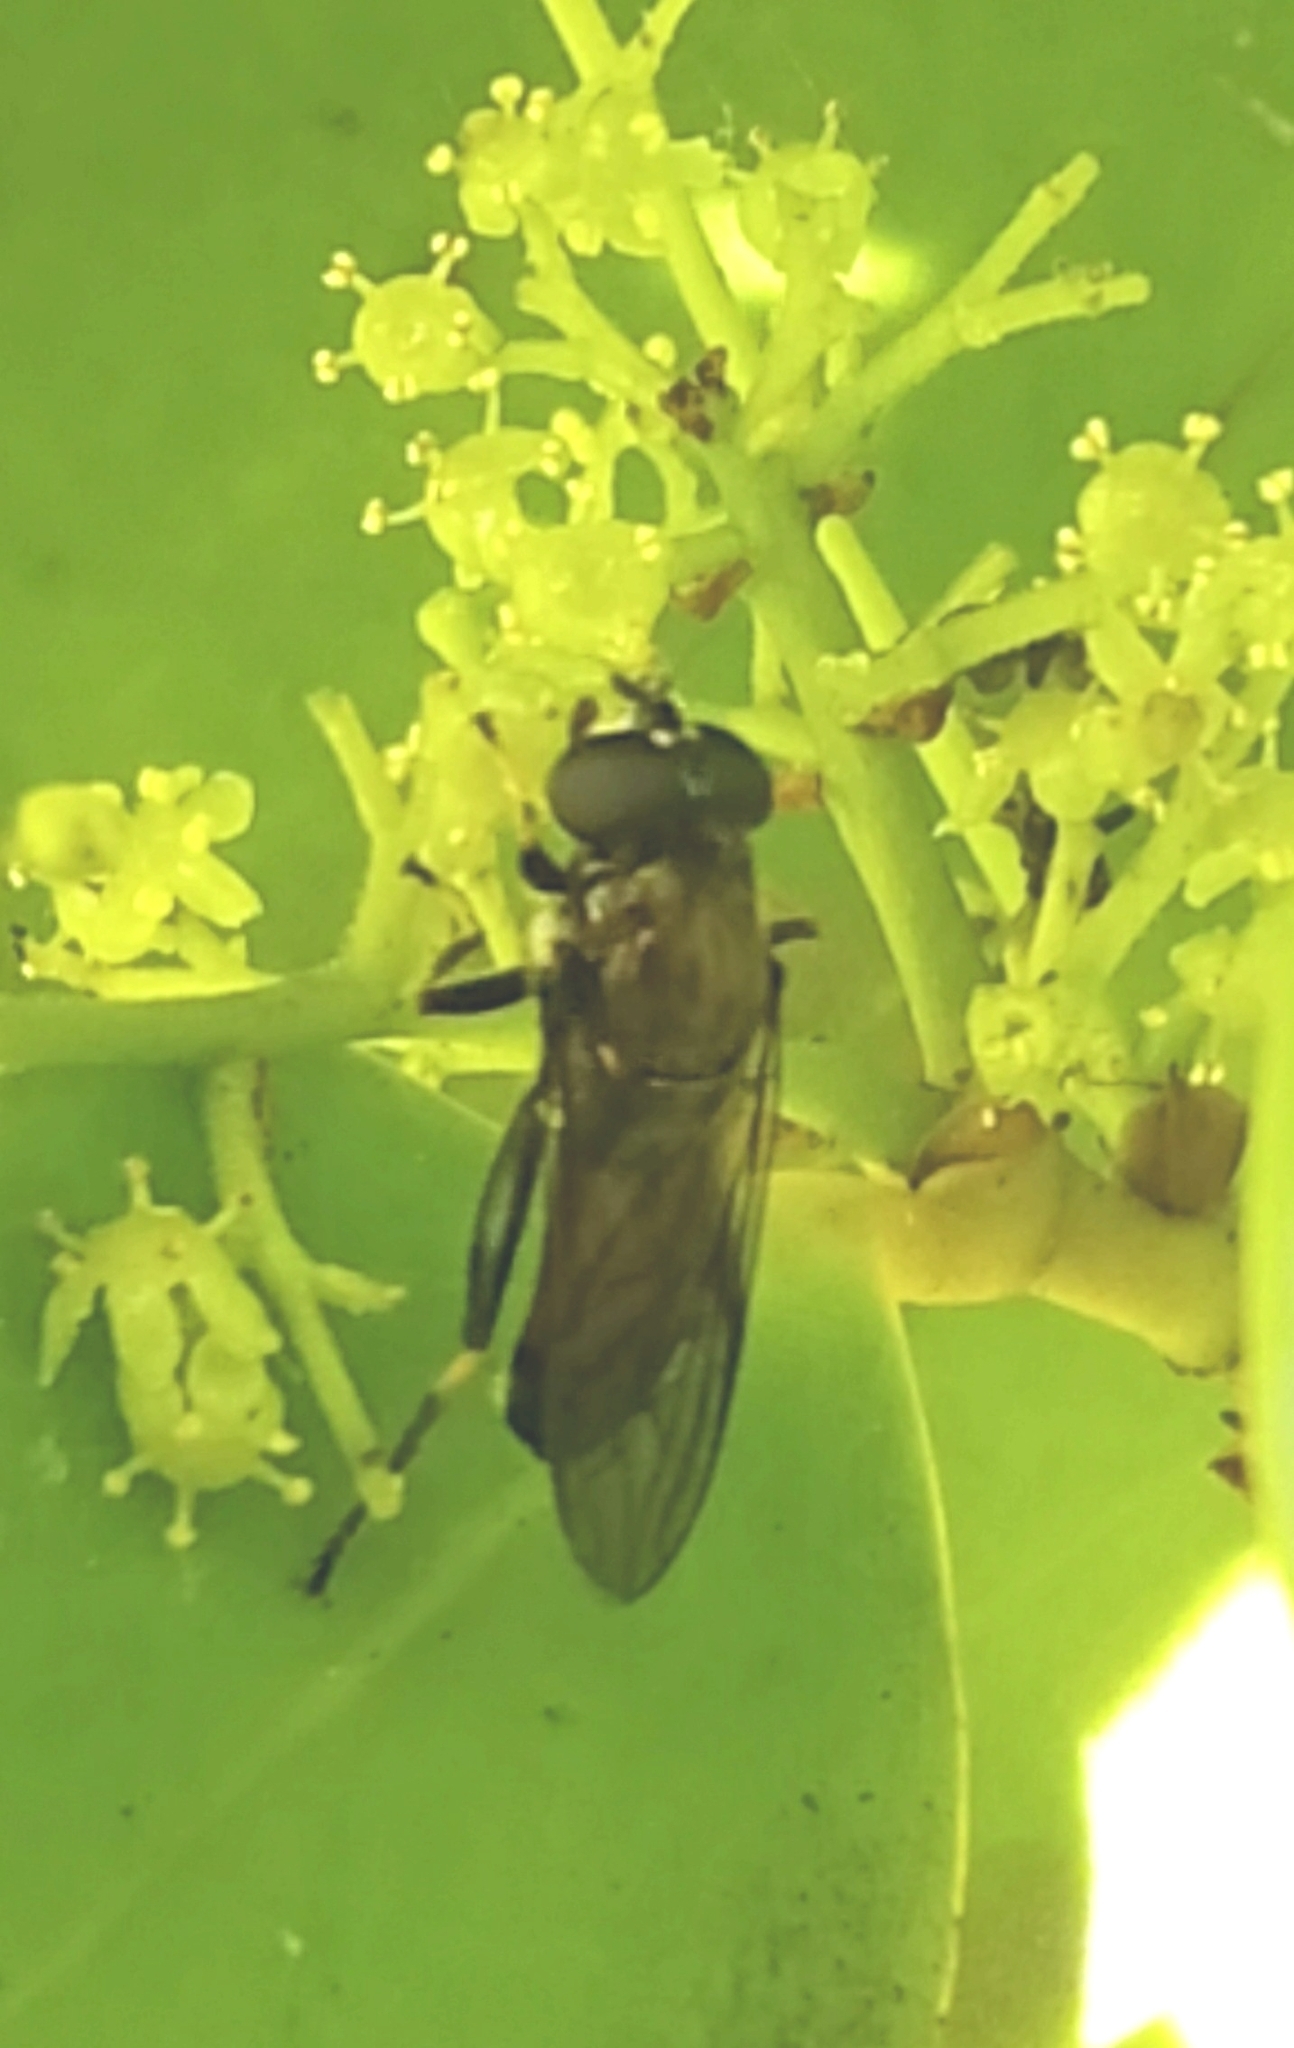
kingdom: Animalia
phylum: Arthropoda
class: Insecta
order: Diptera
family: Syrphidae
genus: Xylota
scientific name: Xylota segnis
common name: Brown-toed forest fly
